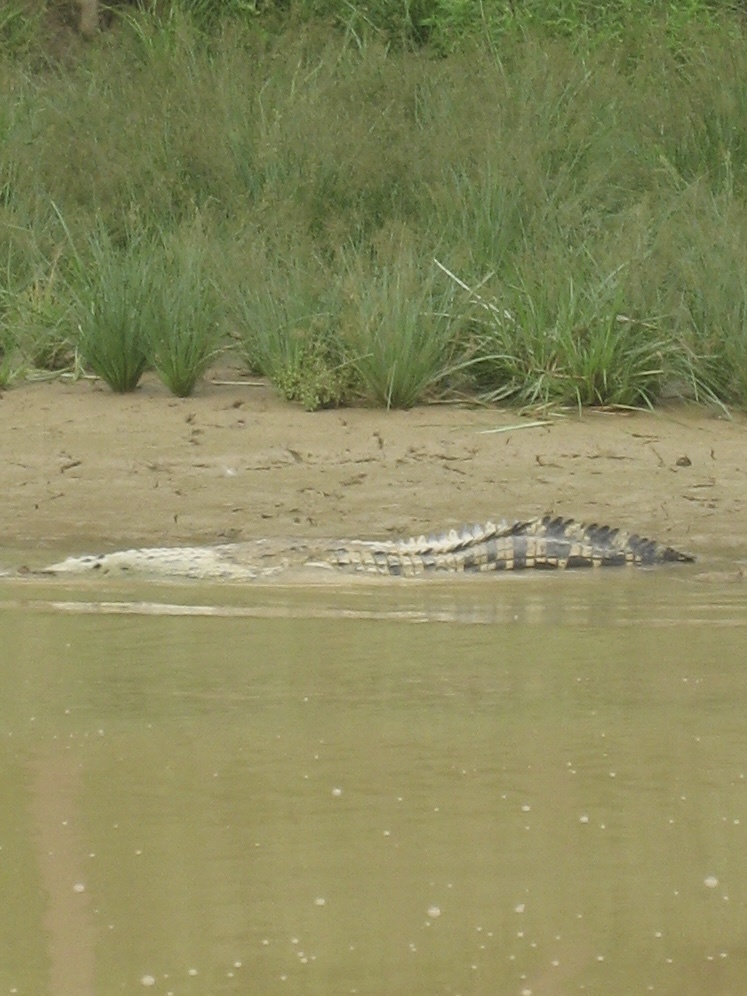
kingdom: Animalia
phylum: Chordata
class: Crocodylia
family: Crocodylidae
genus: Crocodylus
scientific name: Crocodylus porosus
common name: Saltwater crocodile
